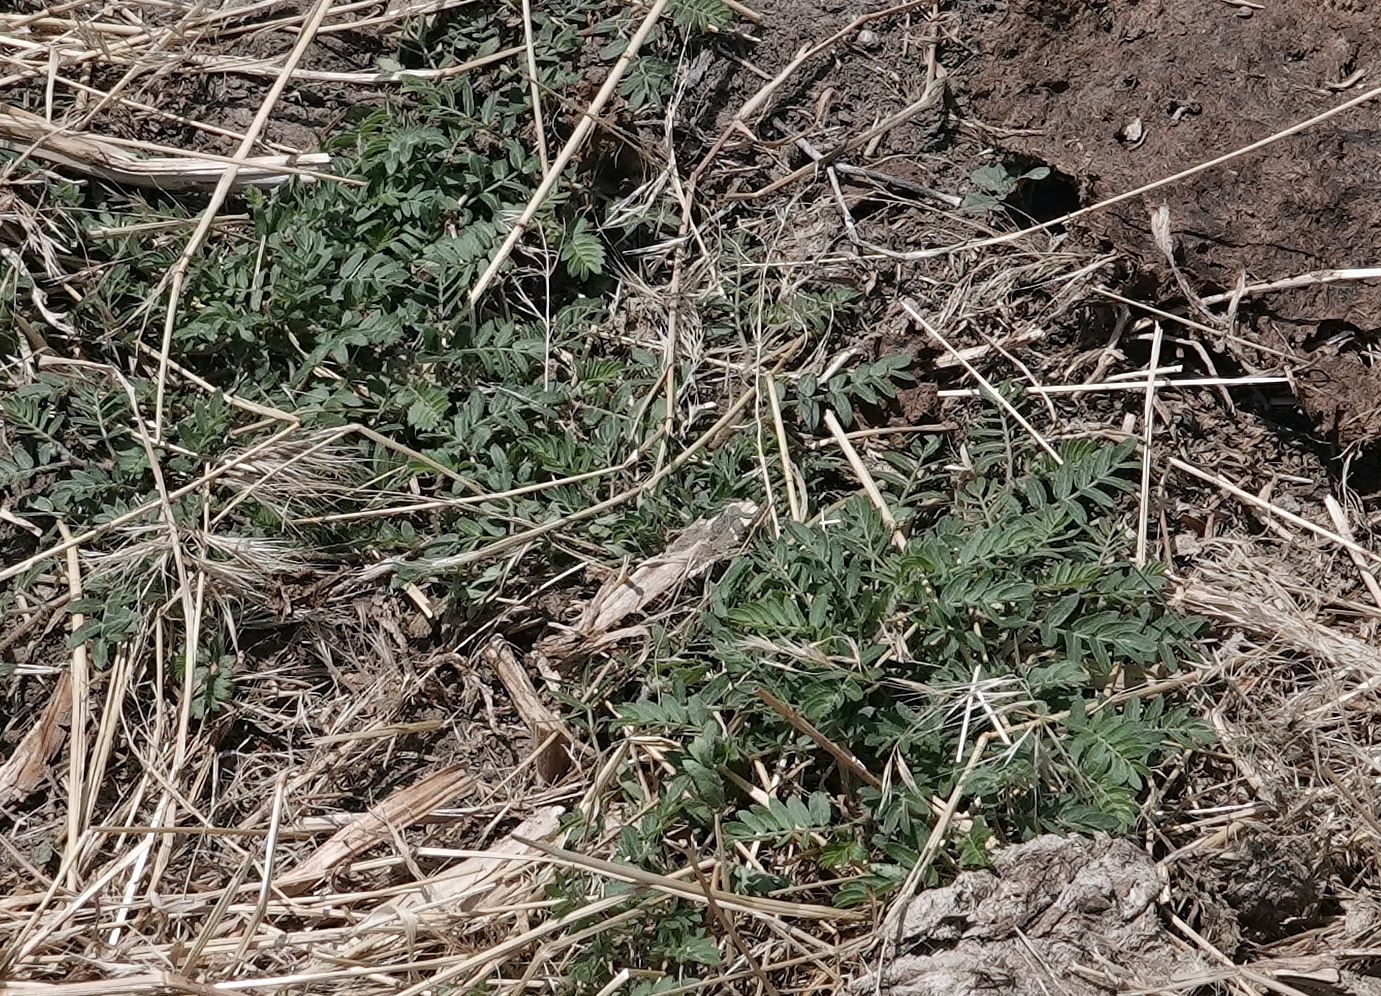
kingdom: Plantae
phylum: Tracheophyta
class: Magnoliopsida
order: Zygophyllales
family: Zygophyllaceae
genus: Tribulus
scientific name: Tribulus terrestris
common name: Puncturevine
